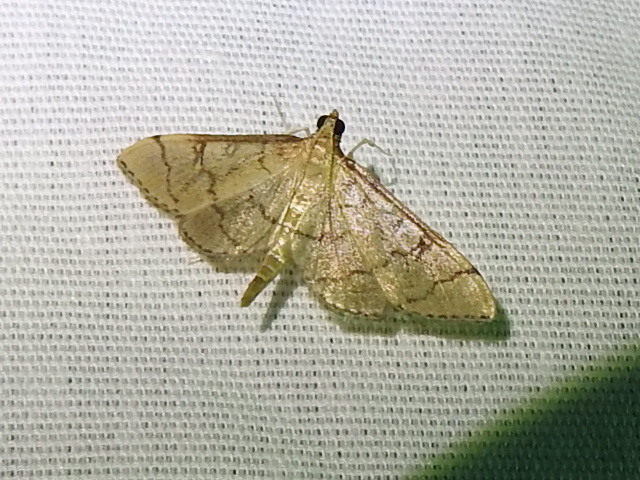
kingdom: Animalia
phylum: Arthropoda
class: Insecta
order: Lepidoptera
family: Crambidae
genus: Lamprosema
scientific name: Lamprosema Blepharomastix ranalis
